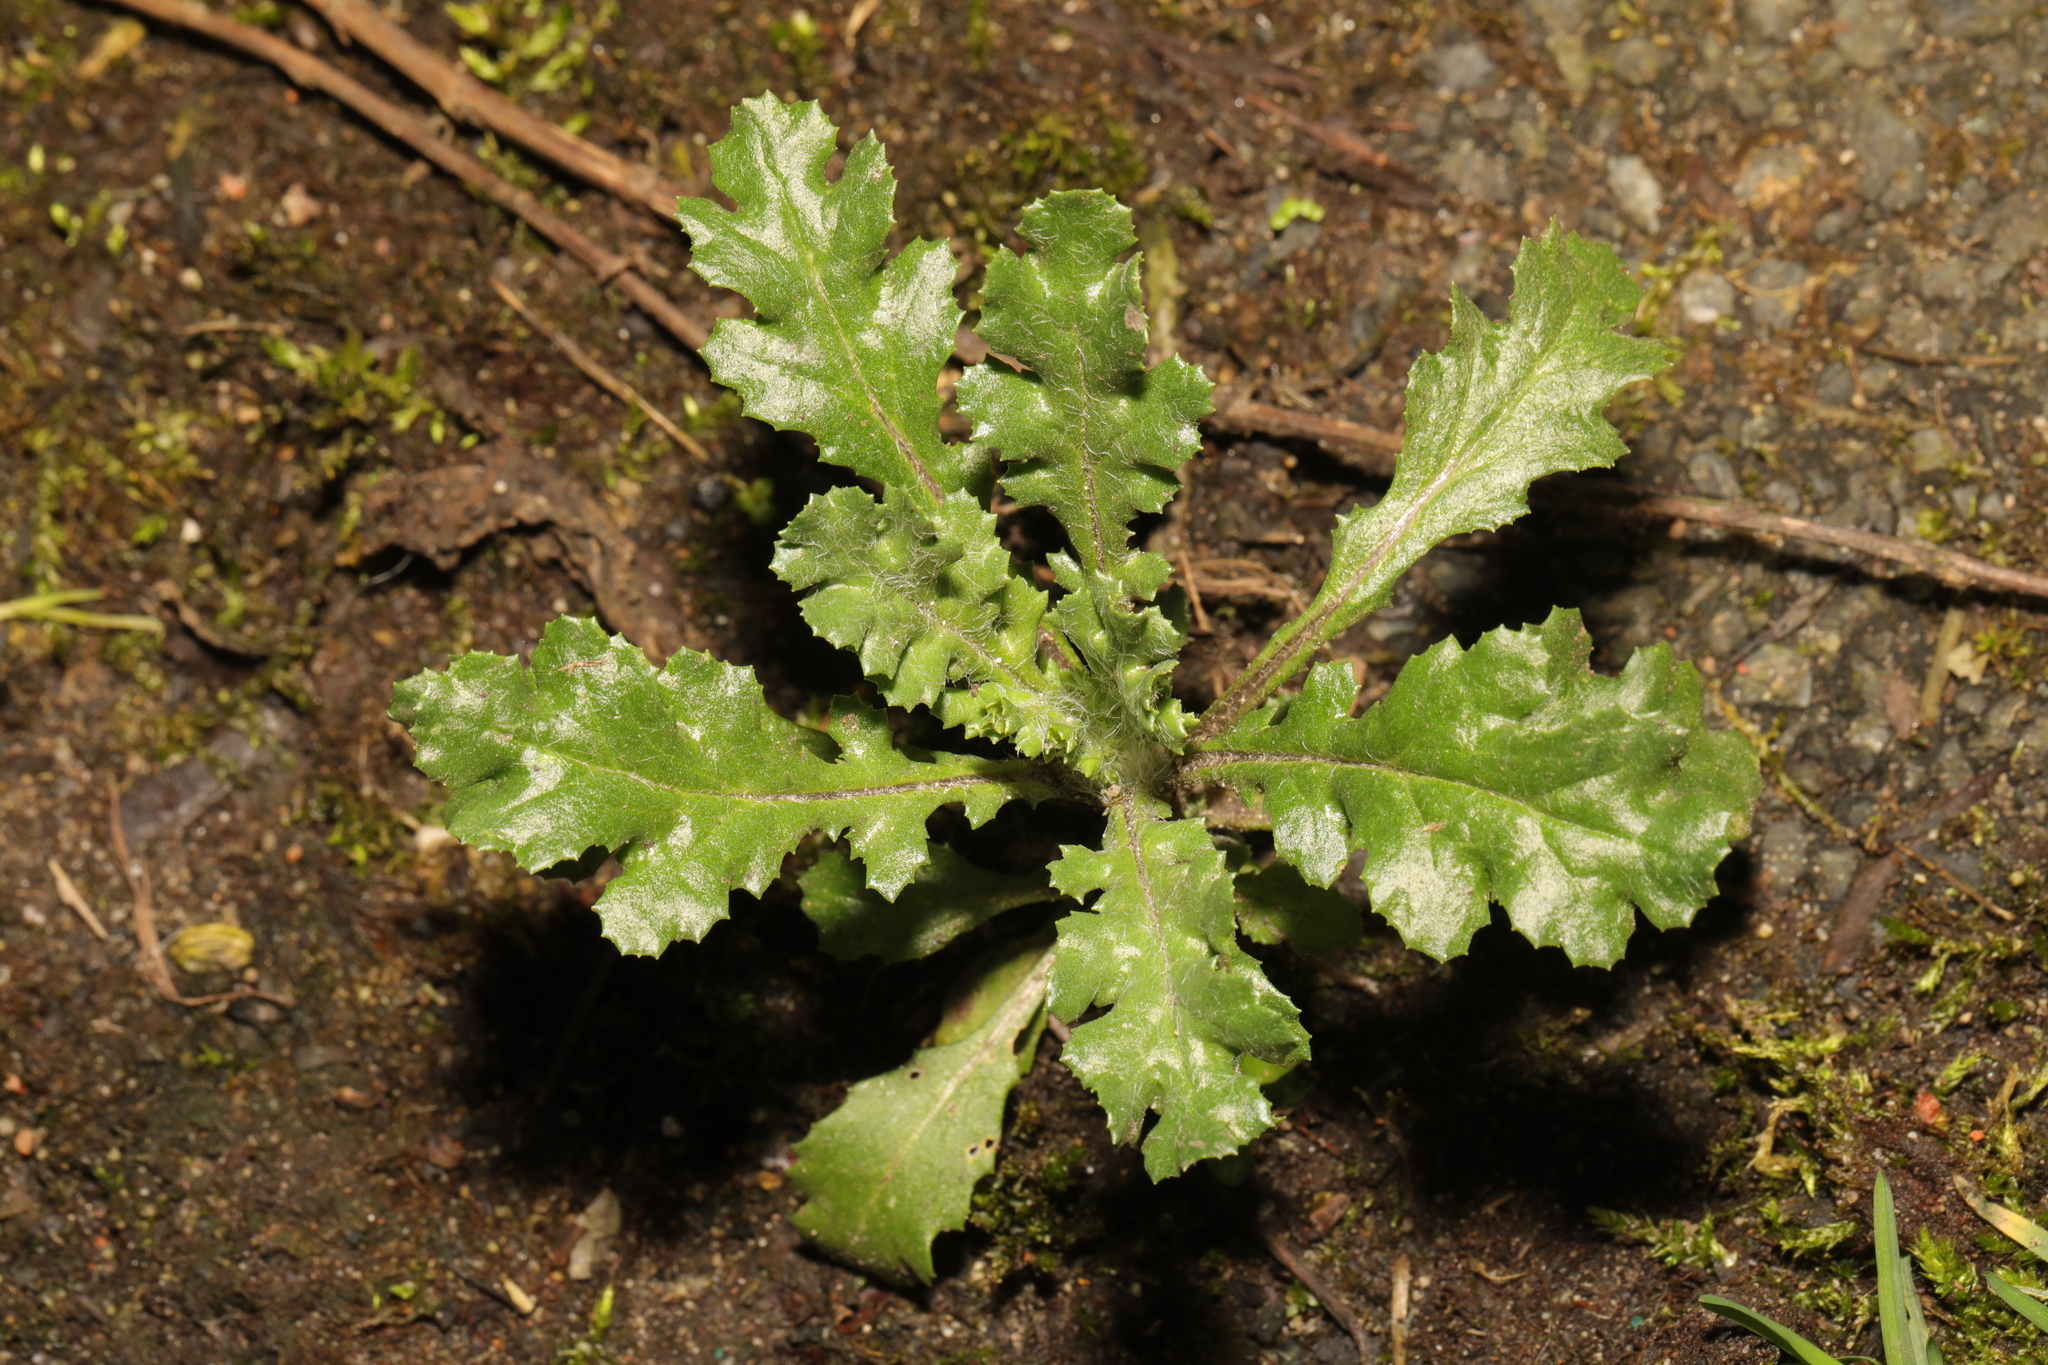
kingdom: Plantae
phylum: Tracheophyta
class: Magnoliopsida
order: Asterales
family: Asteraceae
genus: Senecio
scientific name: Senecio vulgaris
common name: Old-man-in-the-spring
